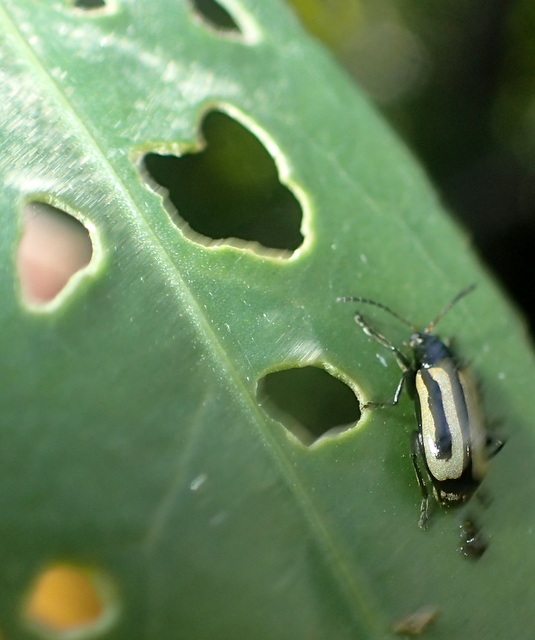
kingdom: Animalia
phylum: Arthropoda
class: Insecta
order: Coleoptera
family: Chrysomelidae
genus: Agasicles
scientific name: Agasicles hygrophila
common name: Alligatorweed flea beetle
